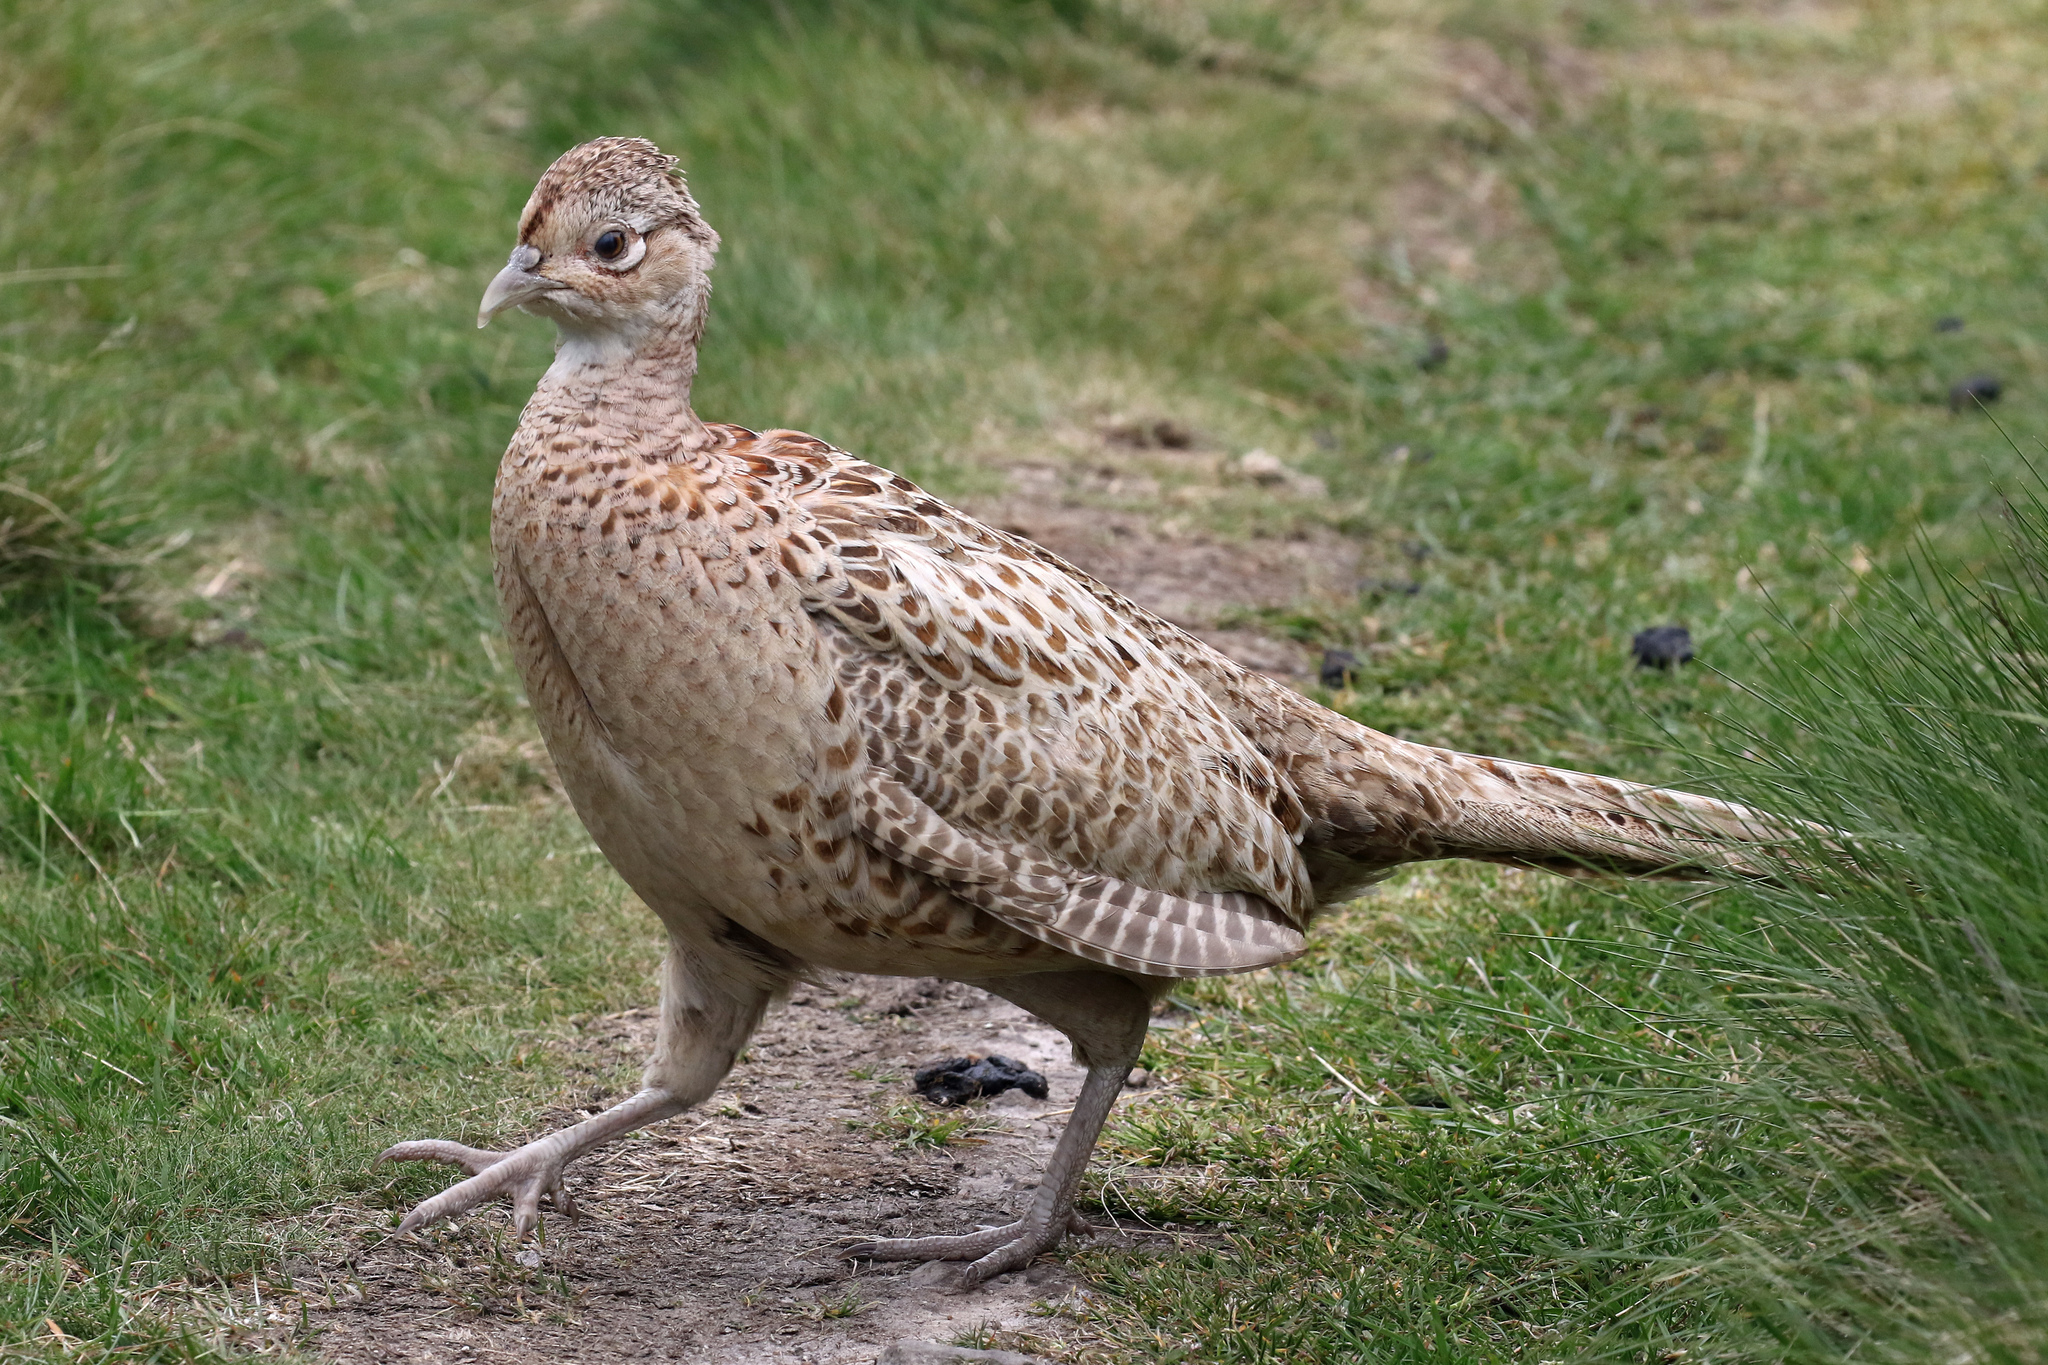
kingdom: Animalia
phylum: Chordata
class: Aves
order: Galliformes
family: Phasianidae
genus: Phasianus
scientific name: Phasianus colchicus
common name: Common pheasant
